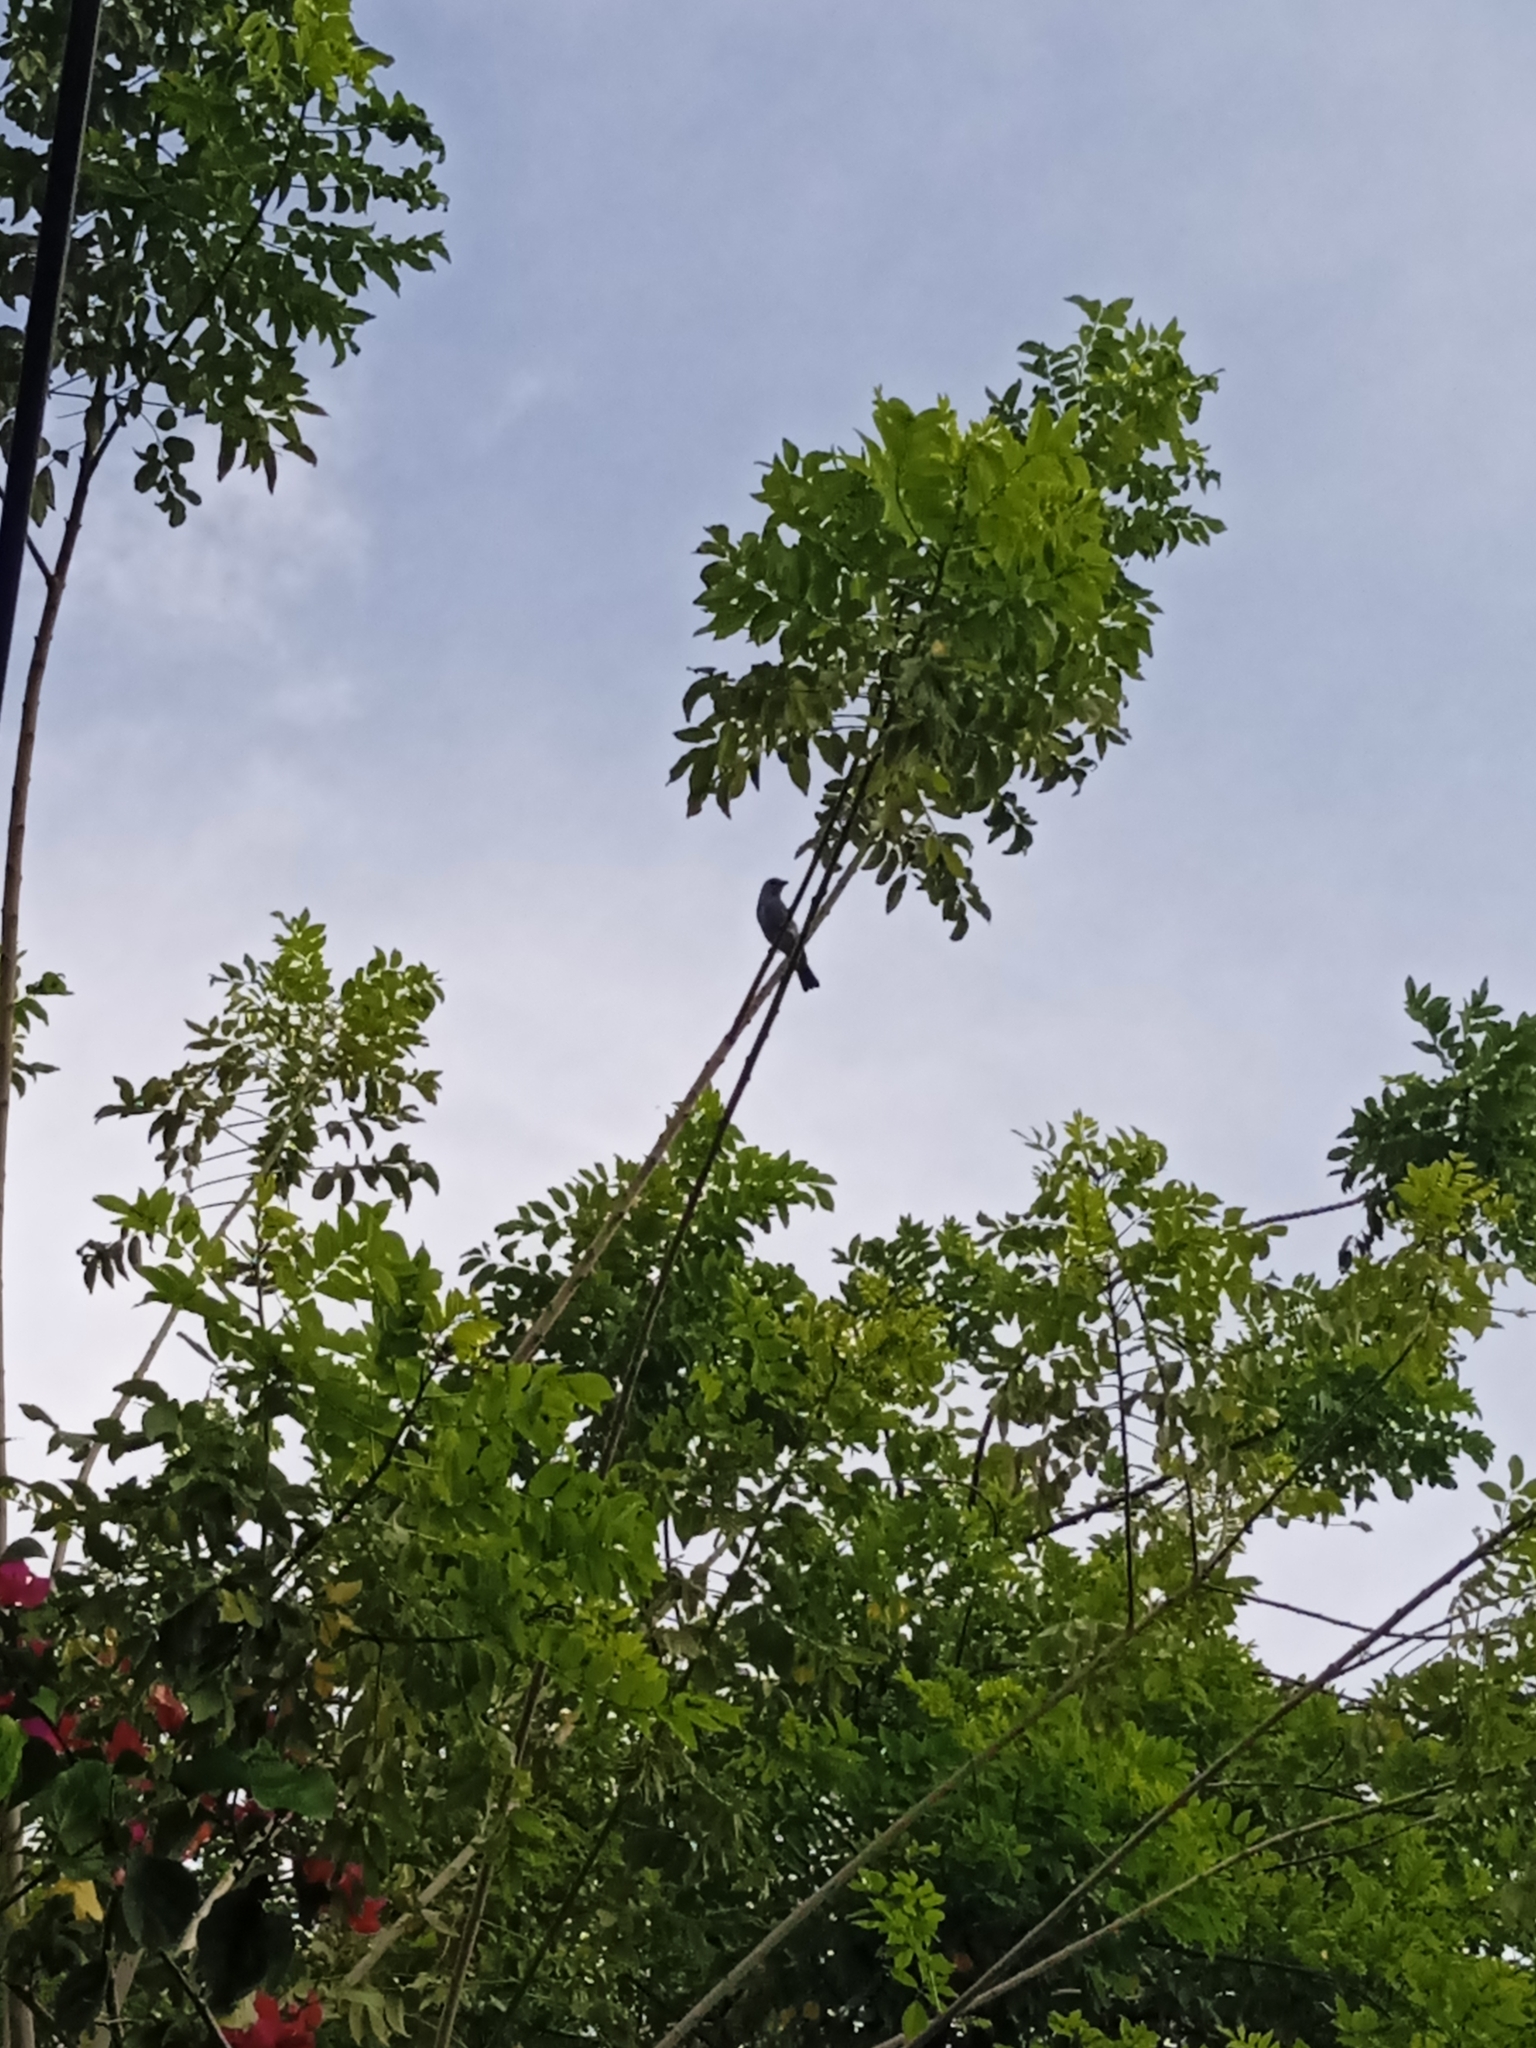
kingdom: Animalia
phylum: Chordata
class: Aves
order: Passeriformes
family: Thraupidae
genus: Thraupis
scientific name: Thraupis episcopus
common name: Blue-grey tanager
